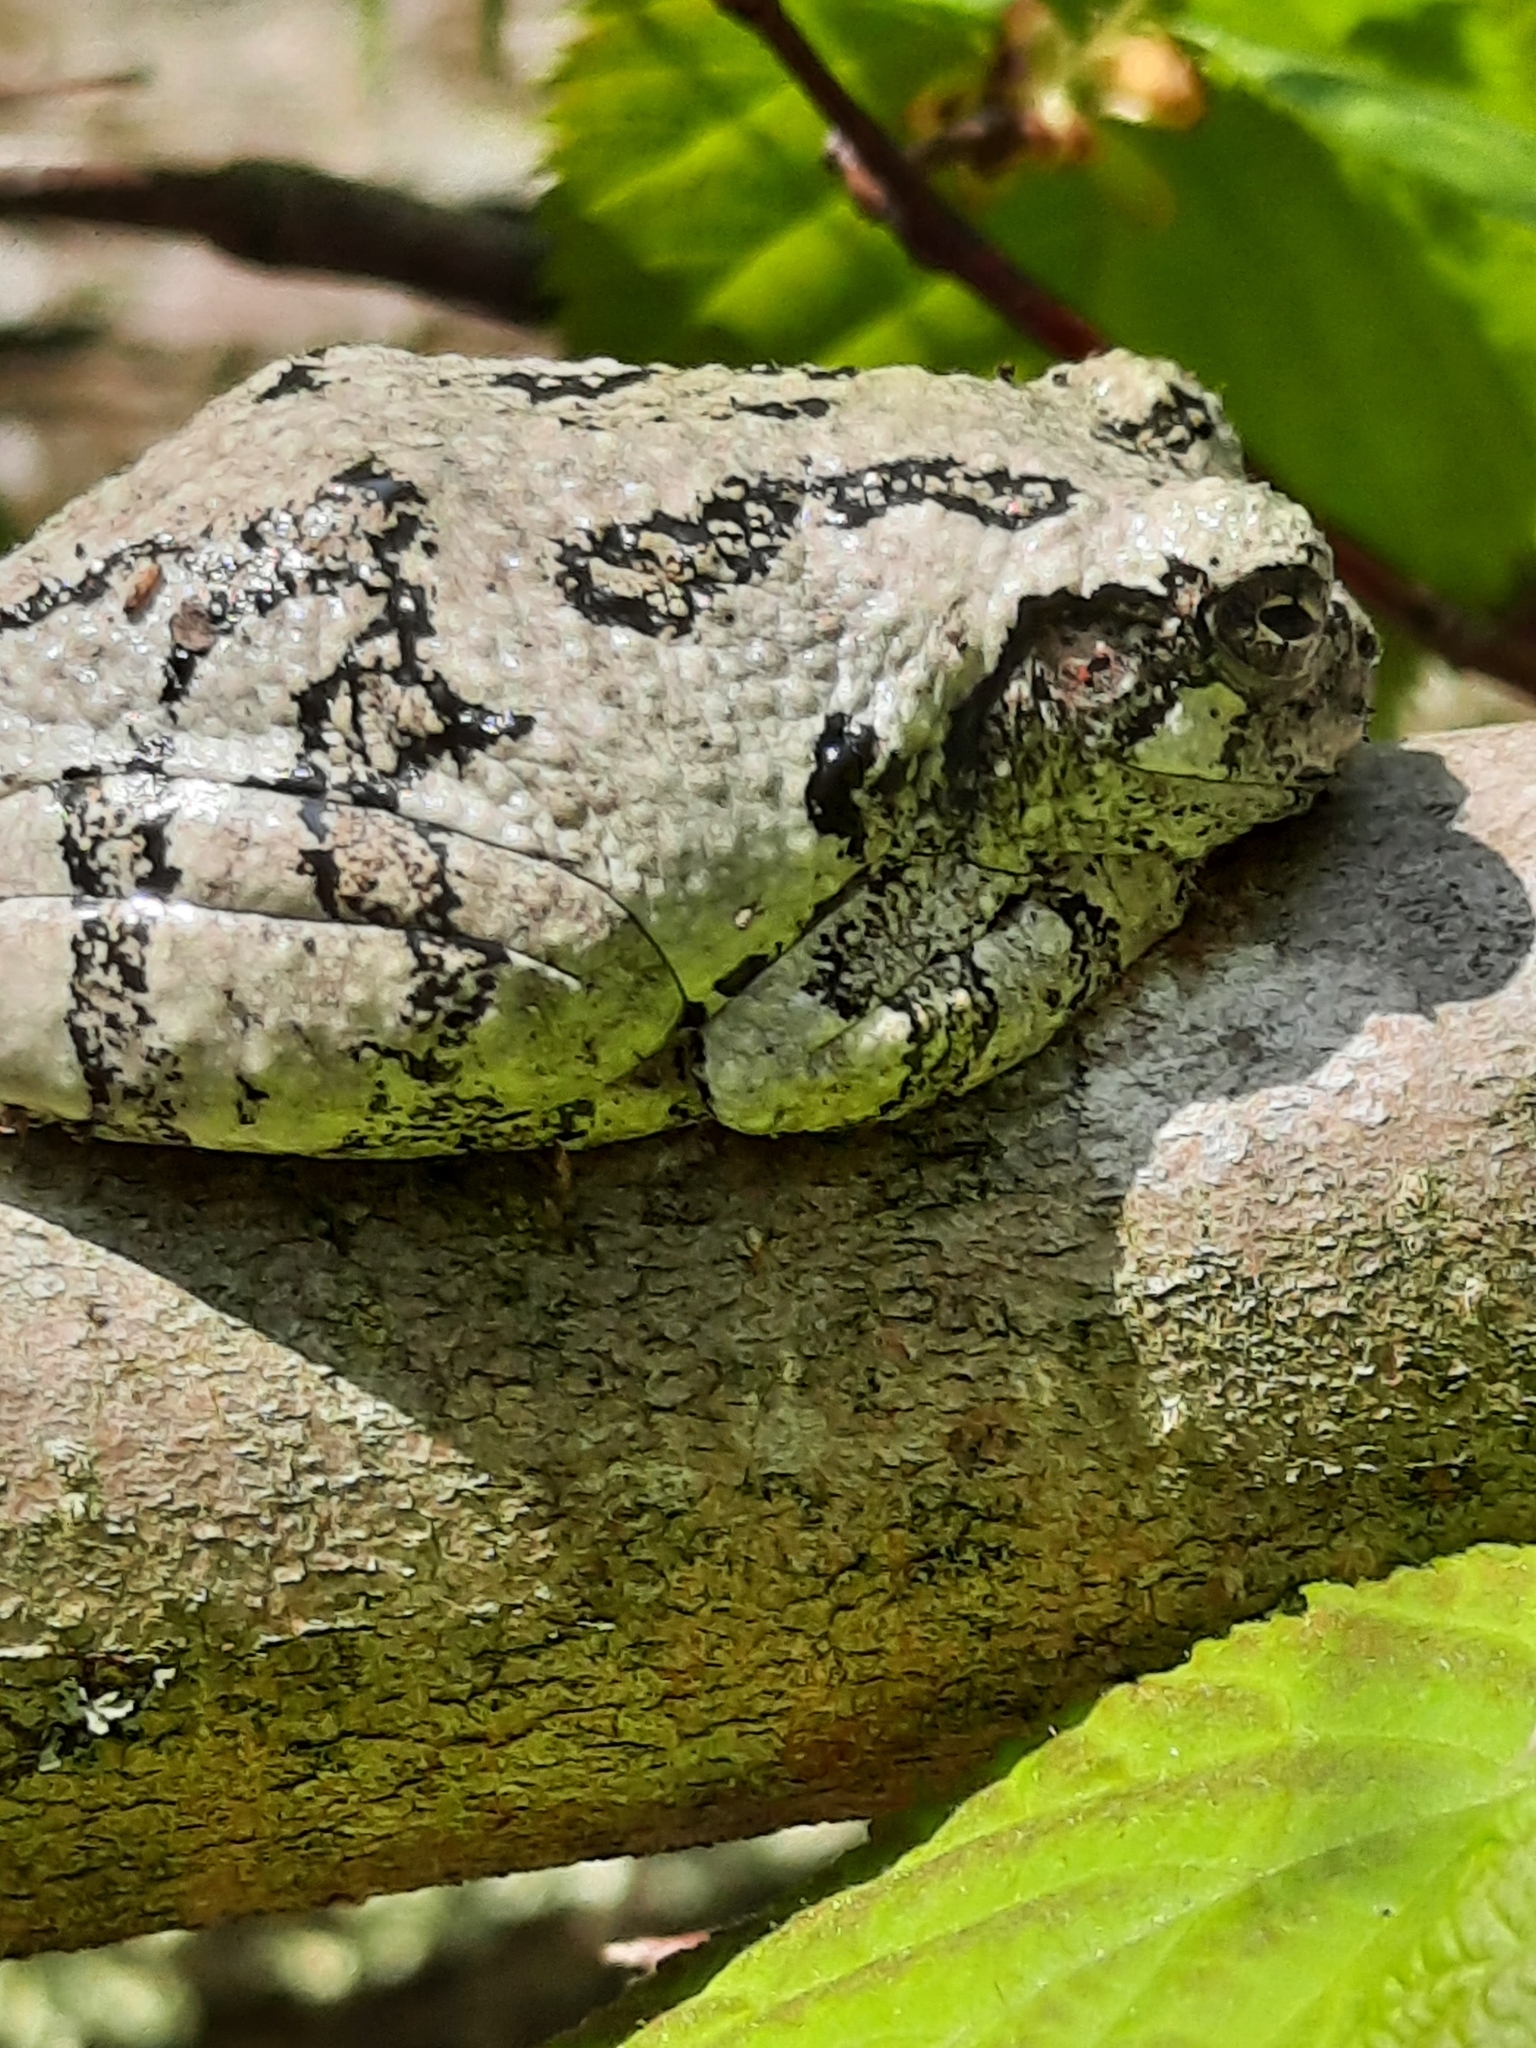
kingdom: Animalia
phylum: Chordata
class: Amphibia
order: Anura
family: Hylidae
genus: Dryophytes
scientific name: Dryophytes versicolor
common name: Gray treefrog
